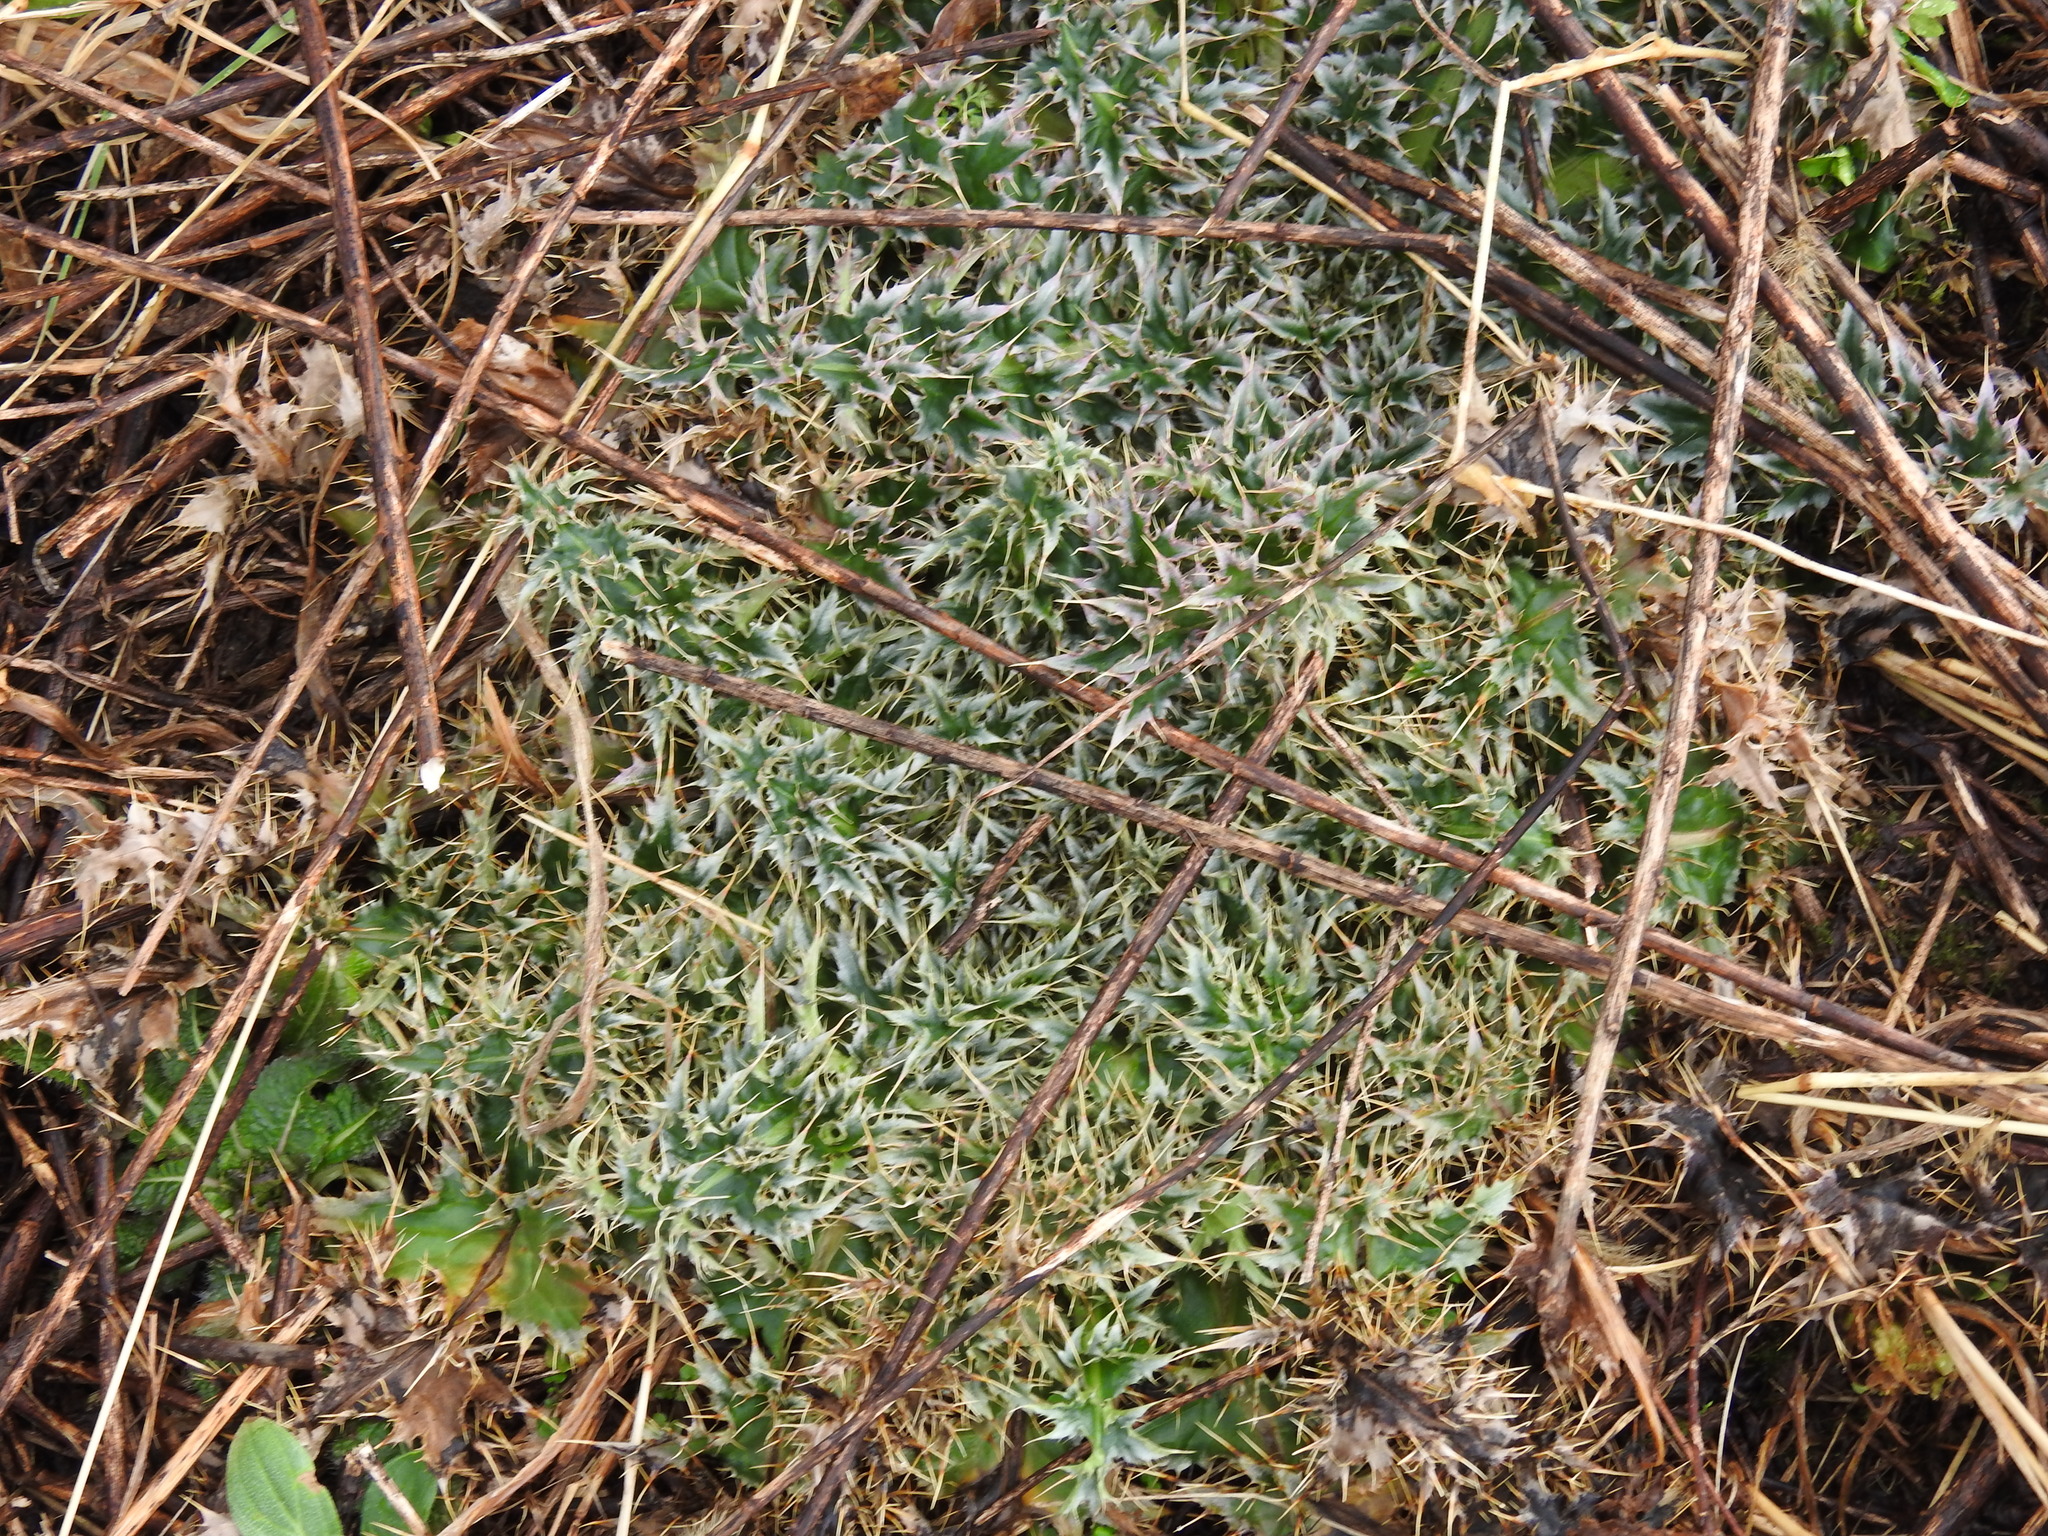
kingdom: Plantae
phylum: Tracheophyta
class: Magnoliopsida
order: Asterales
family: Asteraceae
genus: Carduus
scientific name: Carduus nutans
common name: Musk thistle
